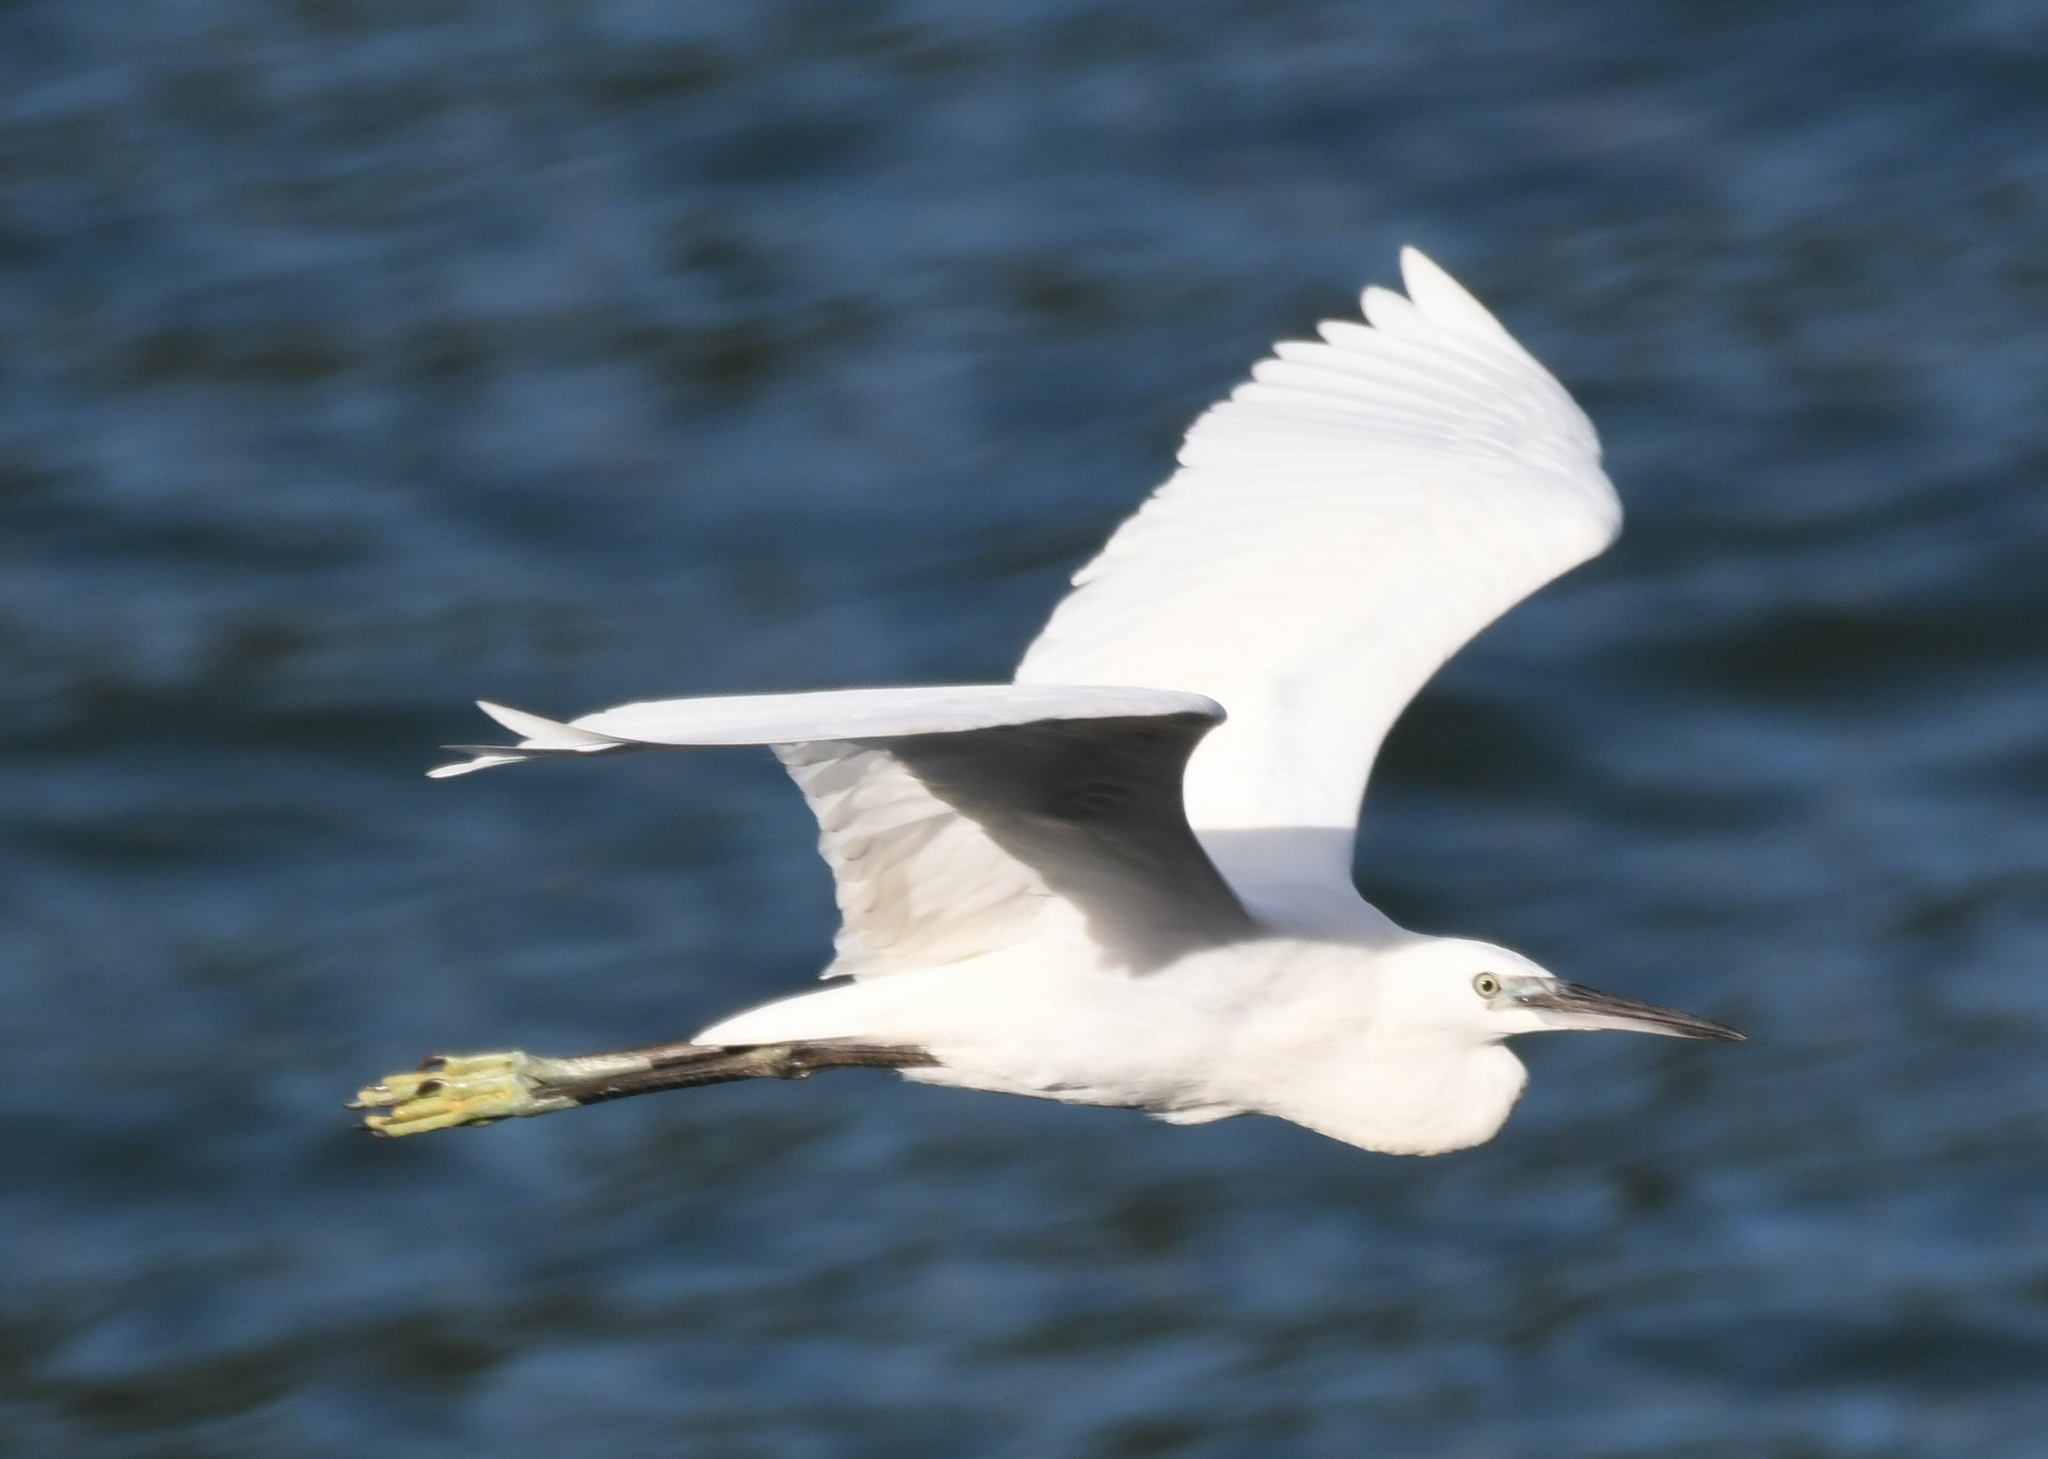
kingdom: Animalia
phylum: Chordata
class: Aves
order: Pelecaniformes
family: Ardeidae
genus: Egretta
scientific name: Egretta garzetta
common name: Little egret
